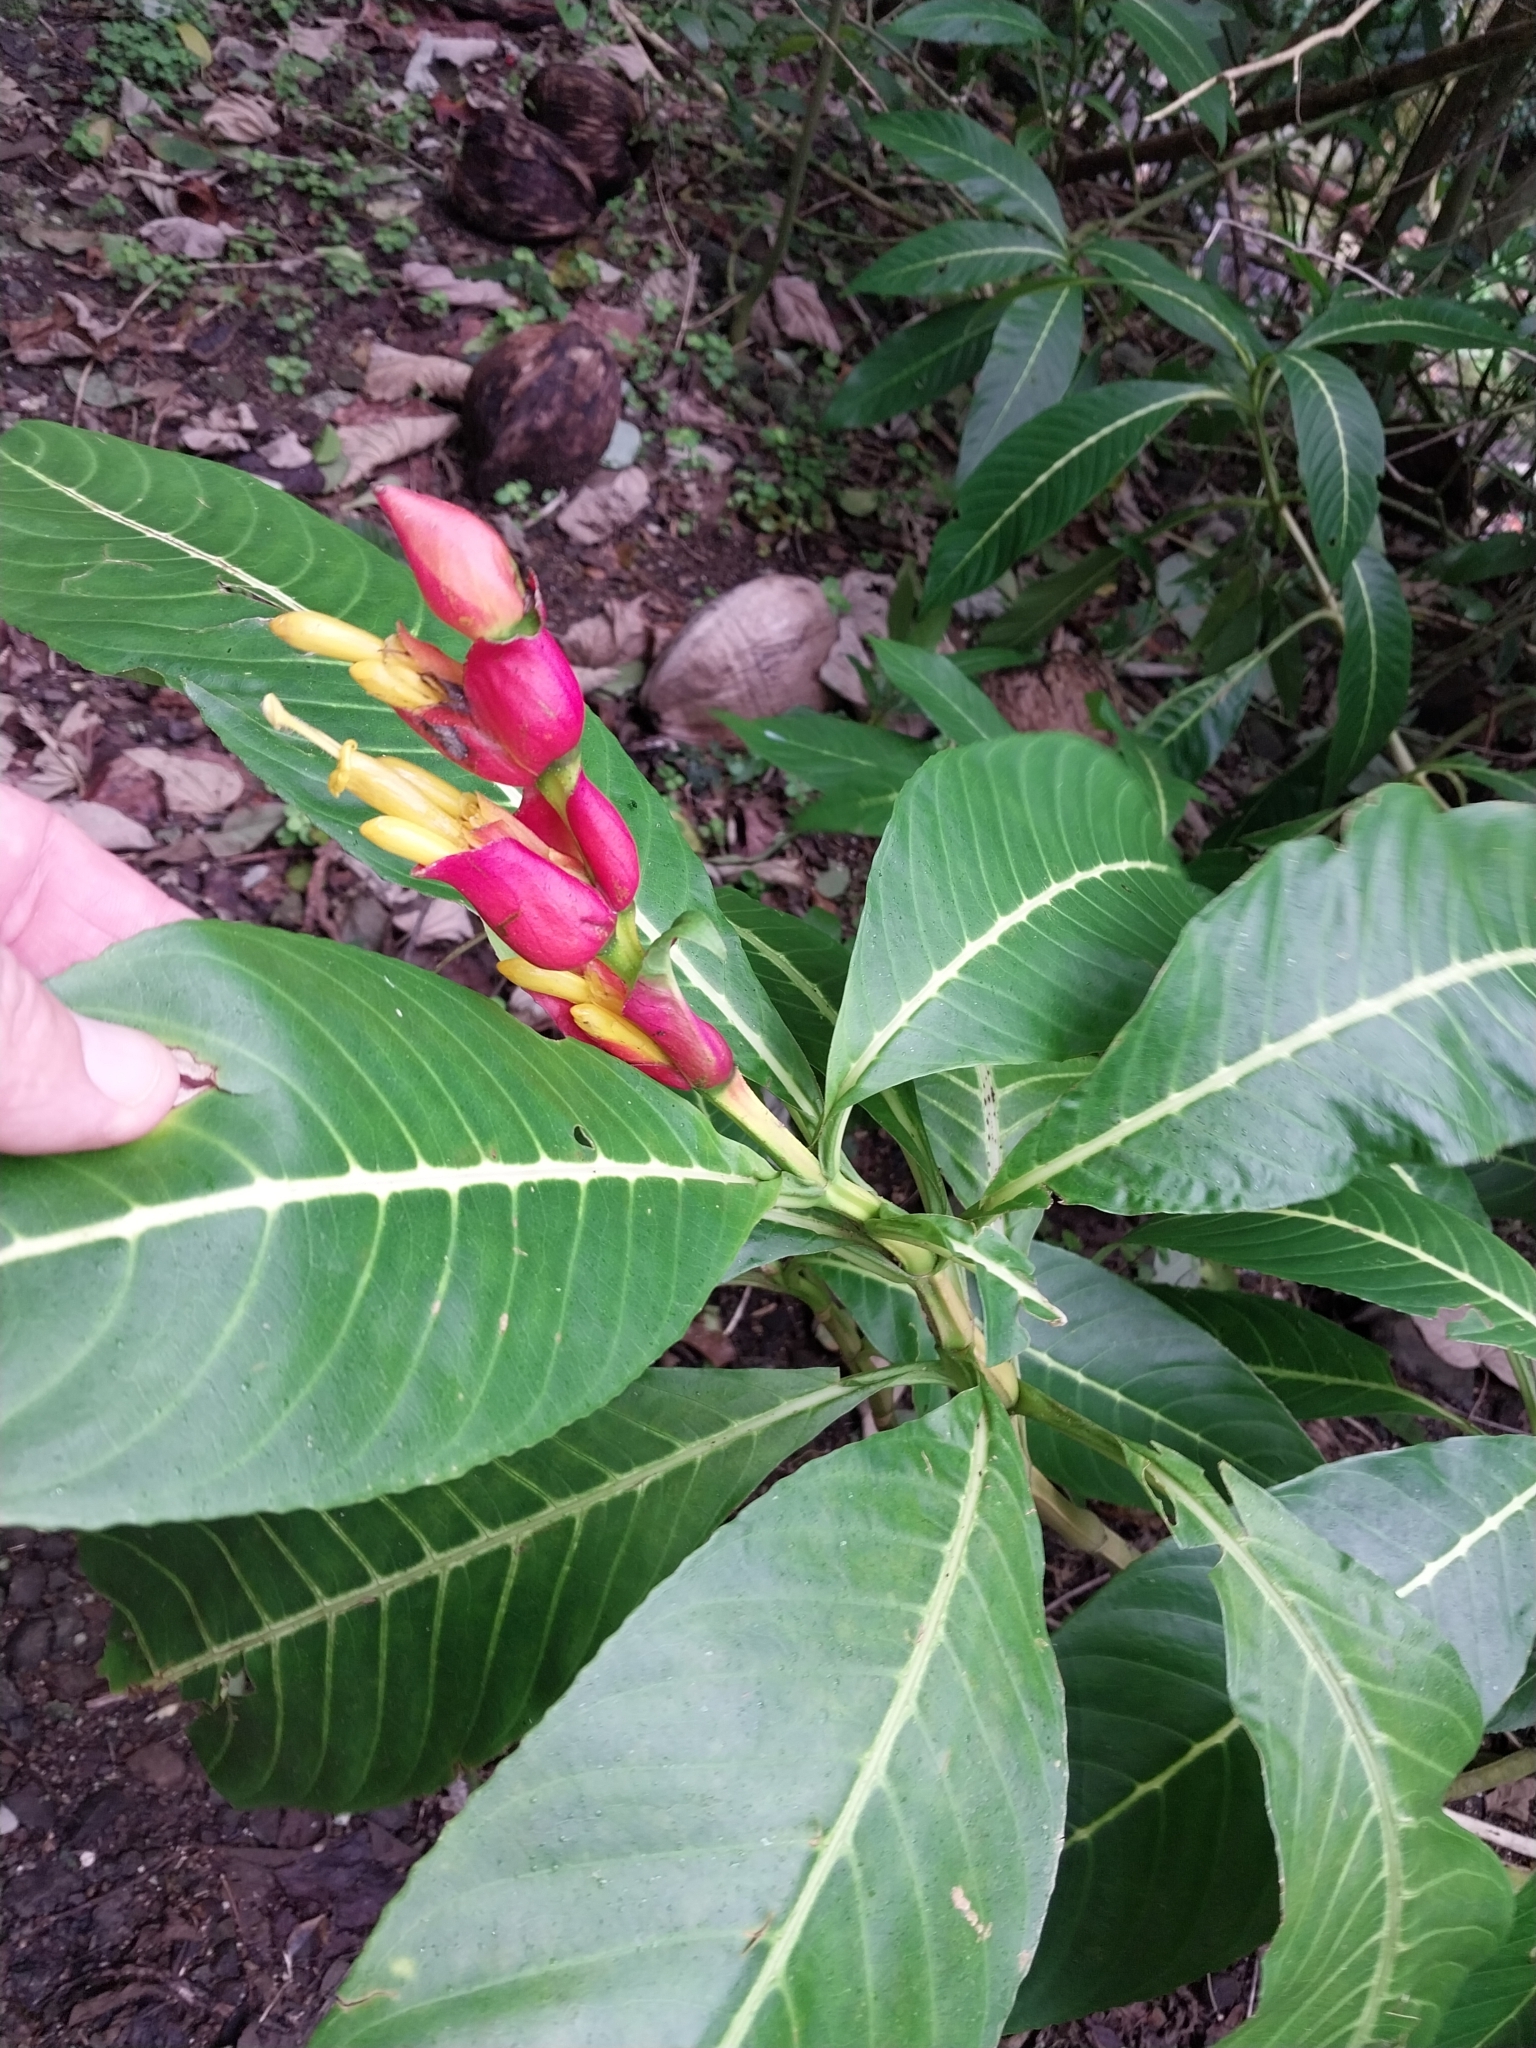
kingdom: Plantae
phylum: Tracheophyta
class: Magnoliopsida
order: Lamiales
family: Acanthaceae
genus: Sanchezia
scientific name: Sanchezia oblonga
